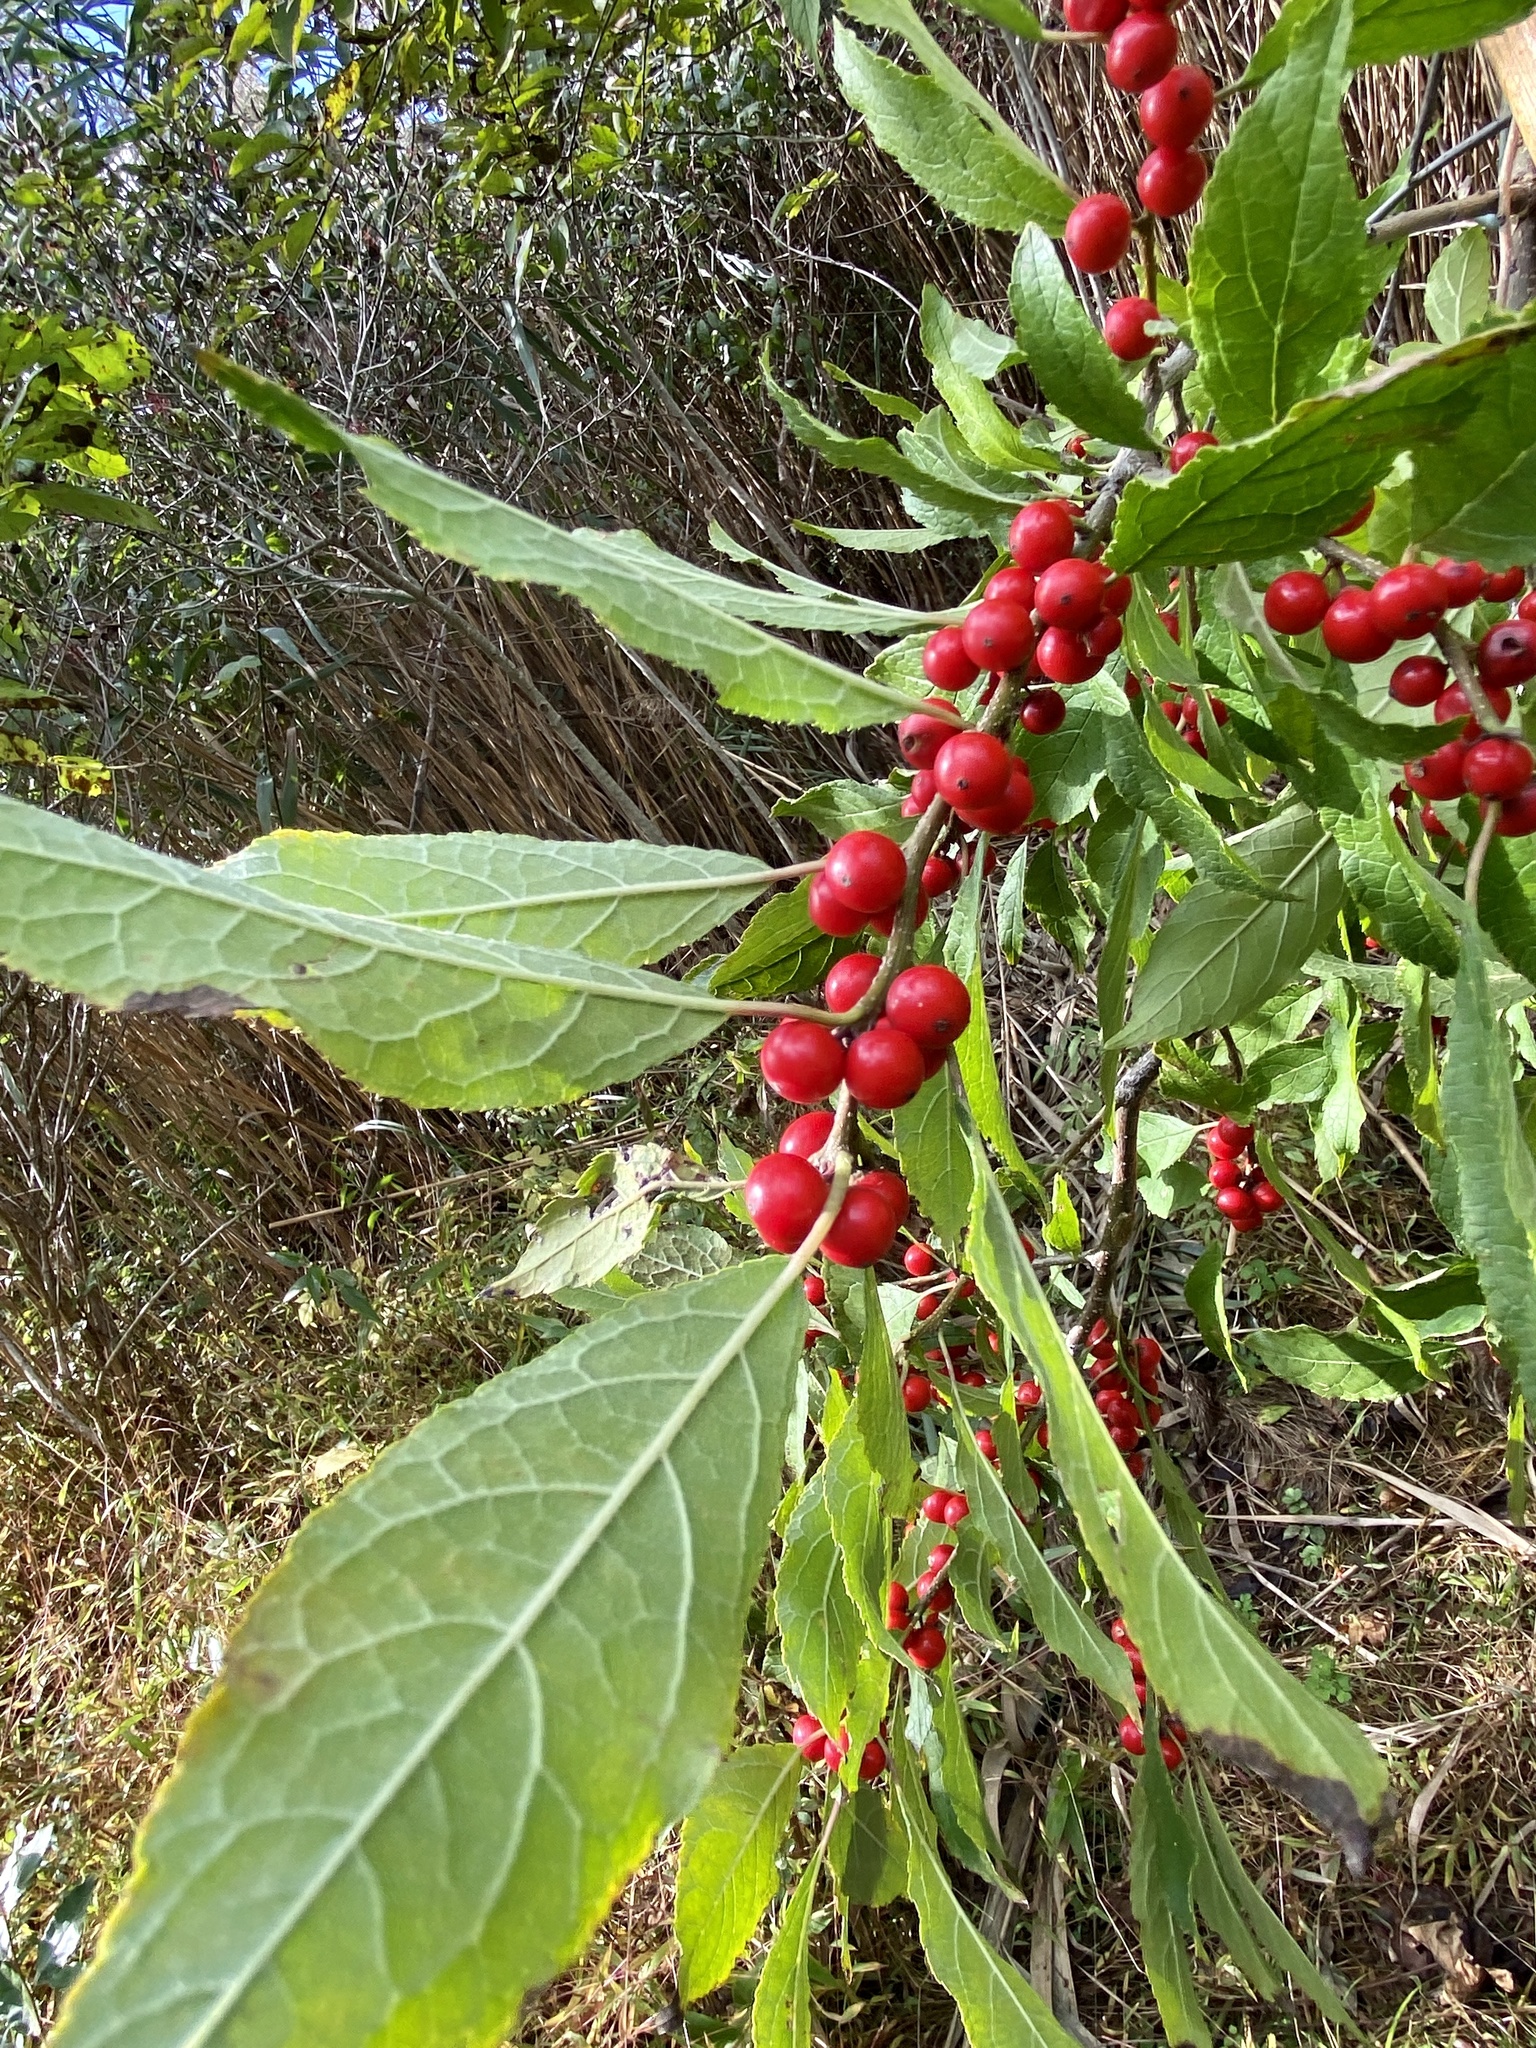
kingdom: Plantae
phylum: Tracheophyta
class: Magnoliopsida
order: Aquifoliales
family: Aquifoliaceae
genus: Ilex
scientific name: Ilex verticillata
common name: Virginia winterberry
